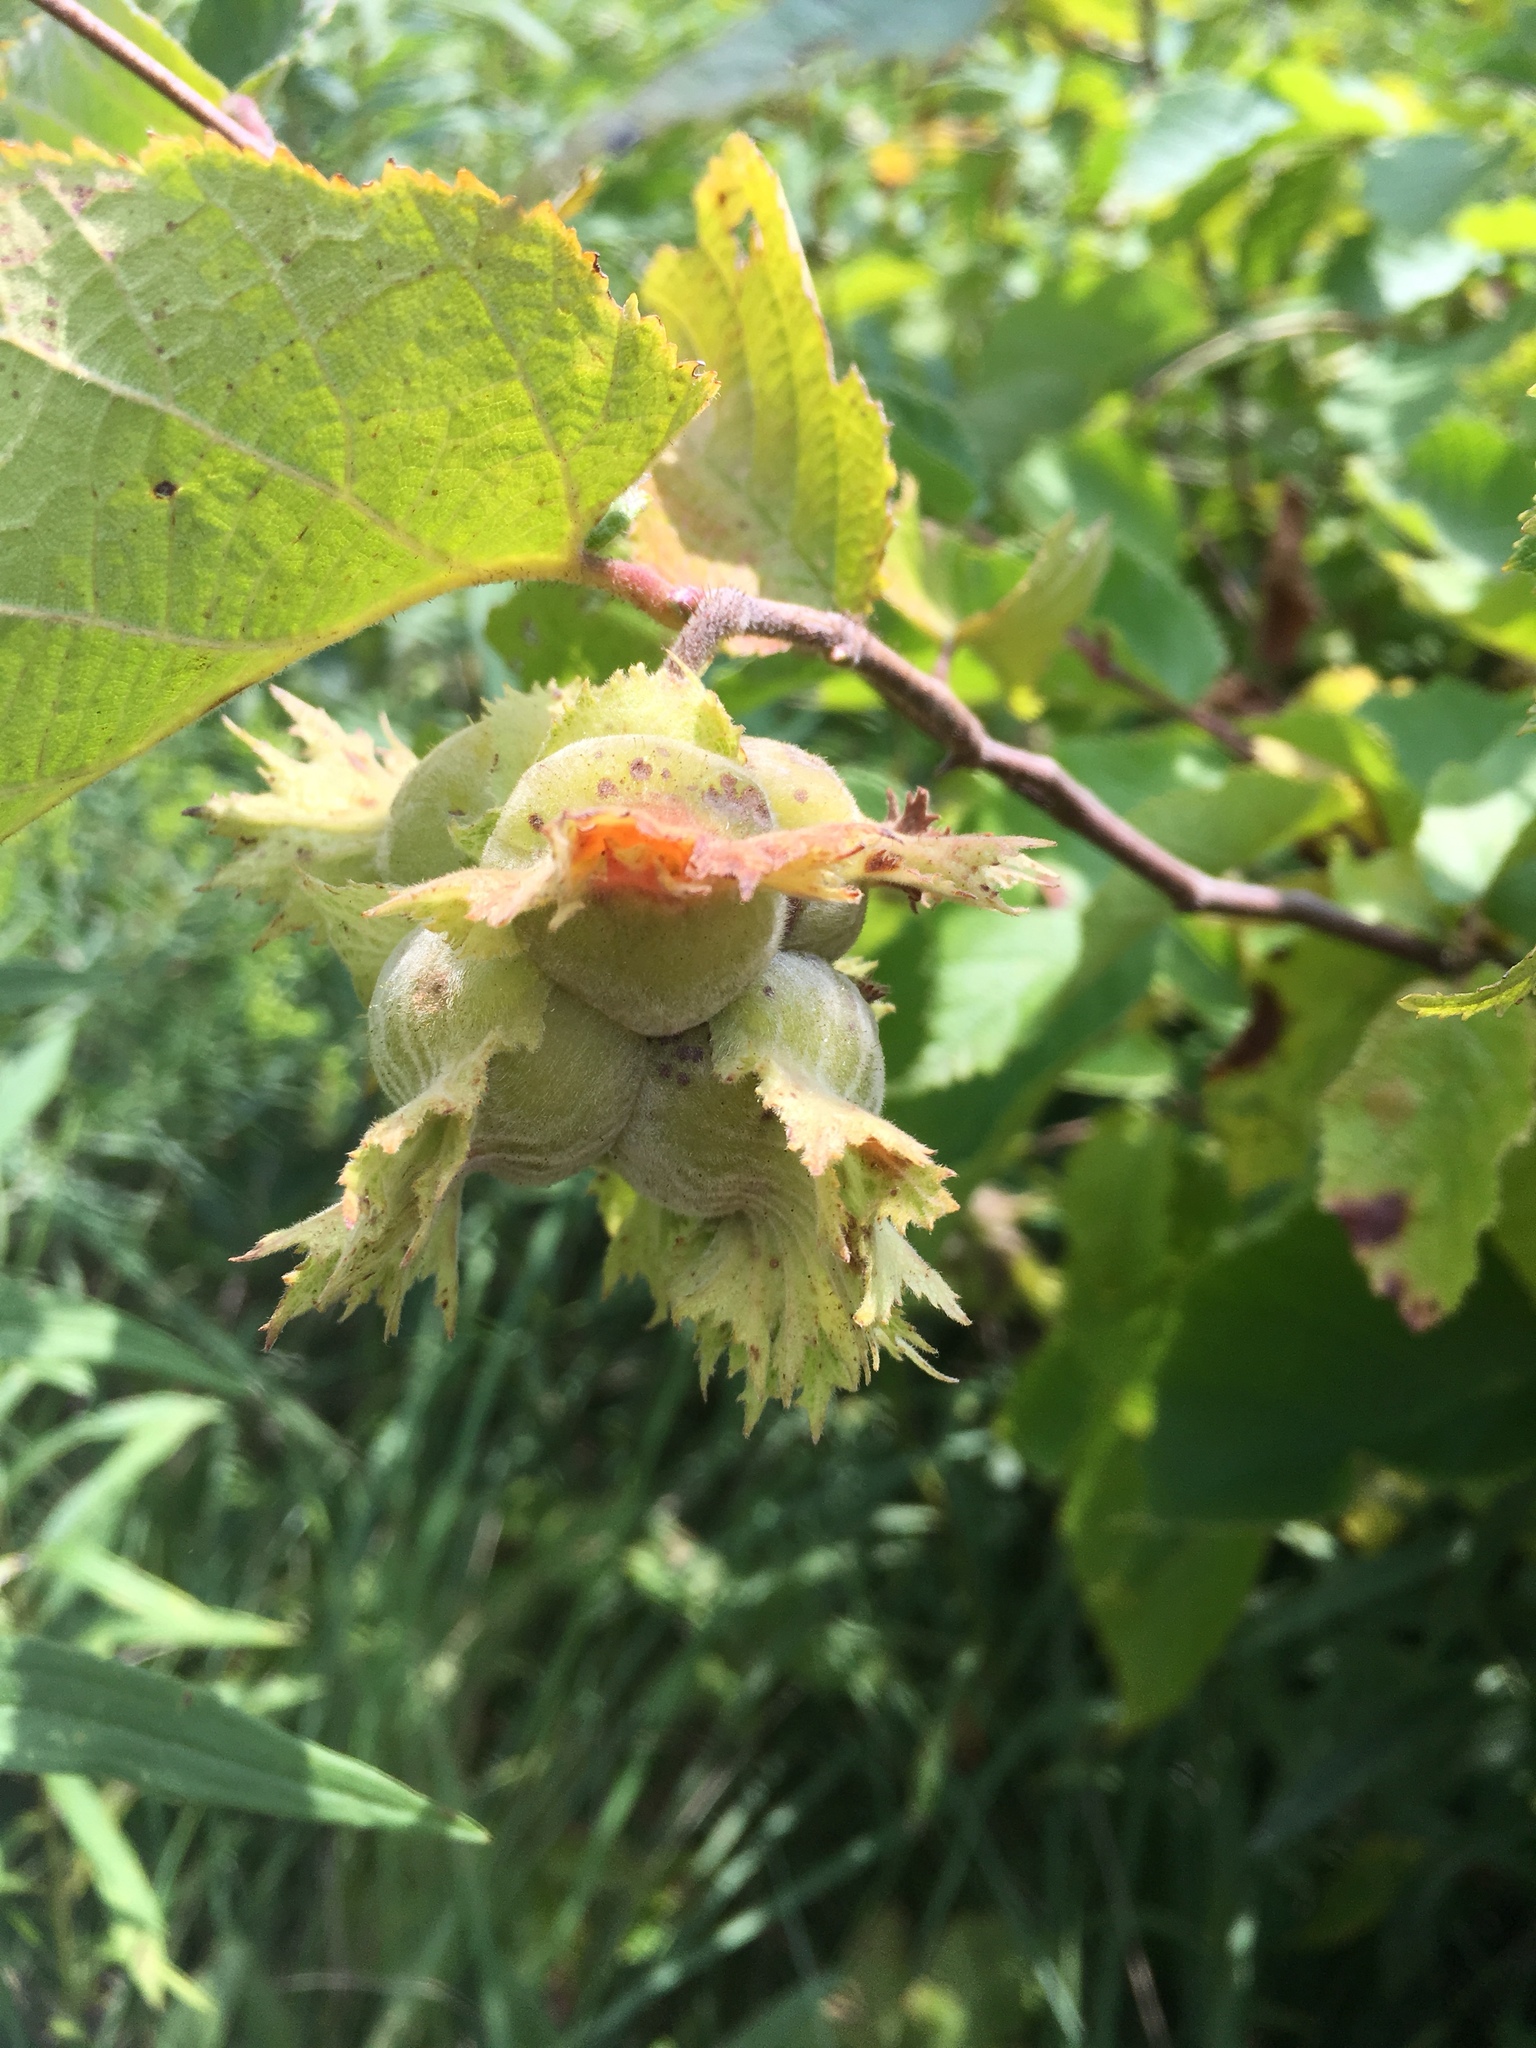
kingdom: Plantae
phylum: Tracheophyta
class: Magnoliopsida
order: Fagales
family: Betulaceae
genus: Corylus
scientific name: Corylus americana
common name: American hazel
